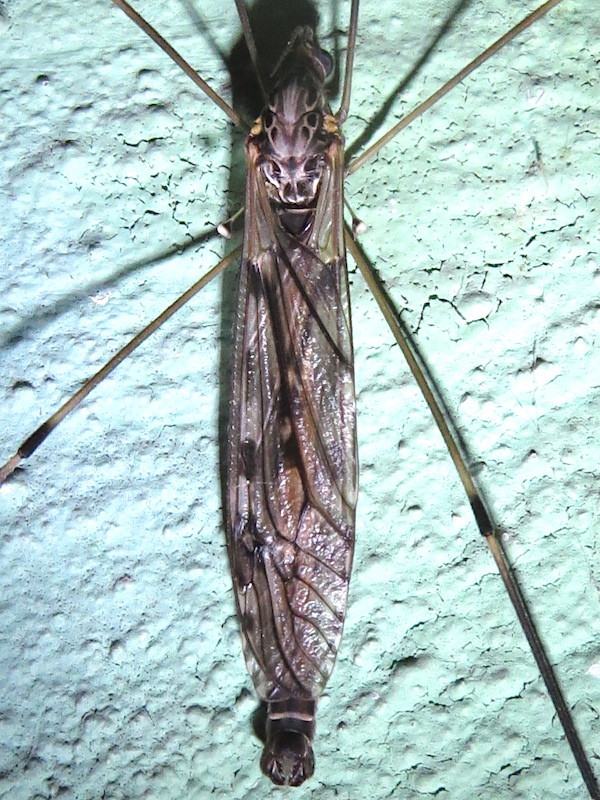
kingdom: Animalia
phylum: Arthropoda
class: Insecta
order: Diptera
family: Tipulidae
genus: Tipula
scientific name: Tipula abdominalis
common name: Giant crane fly
